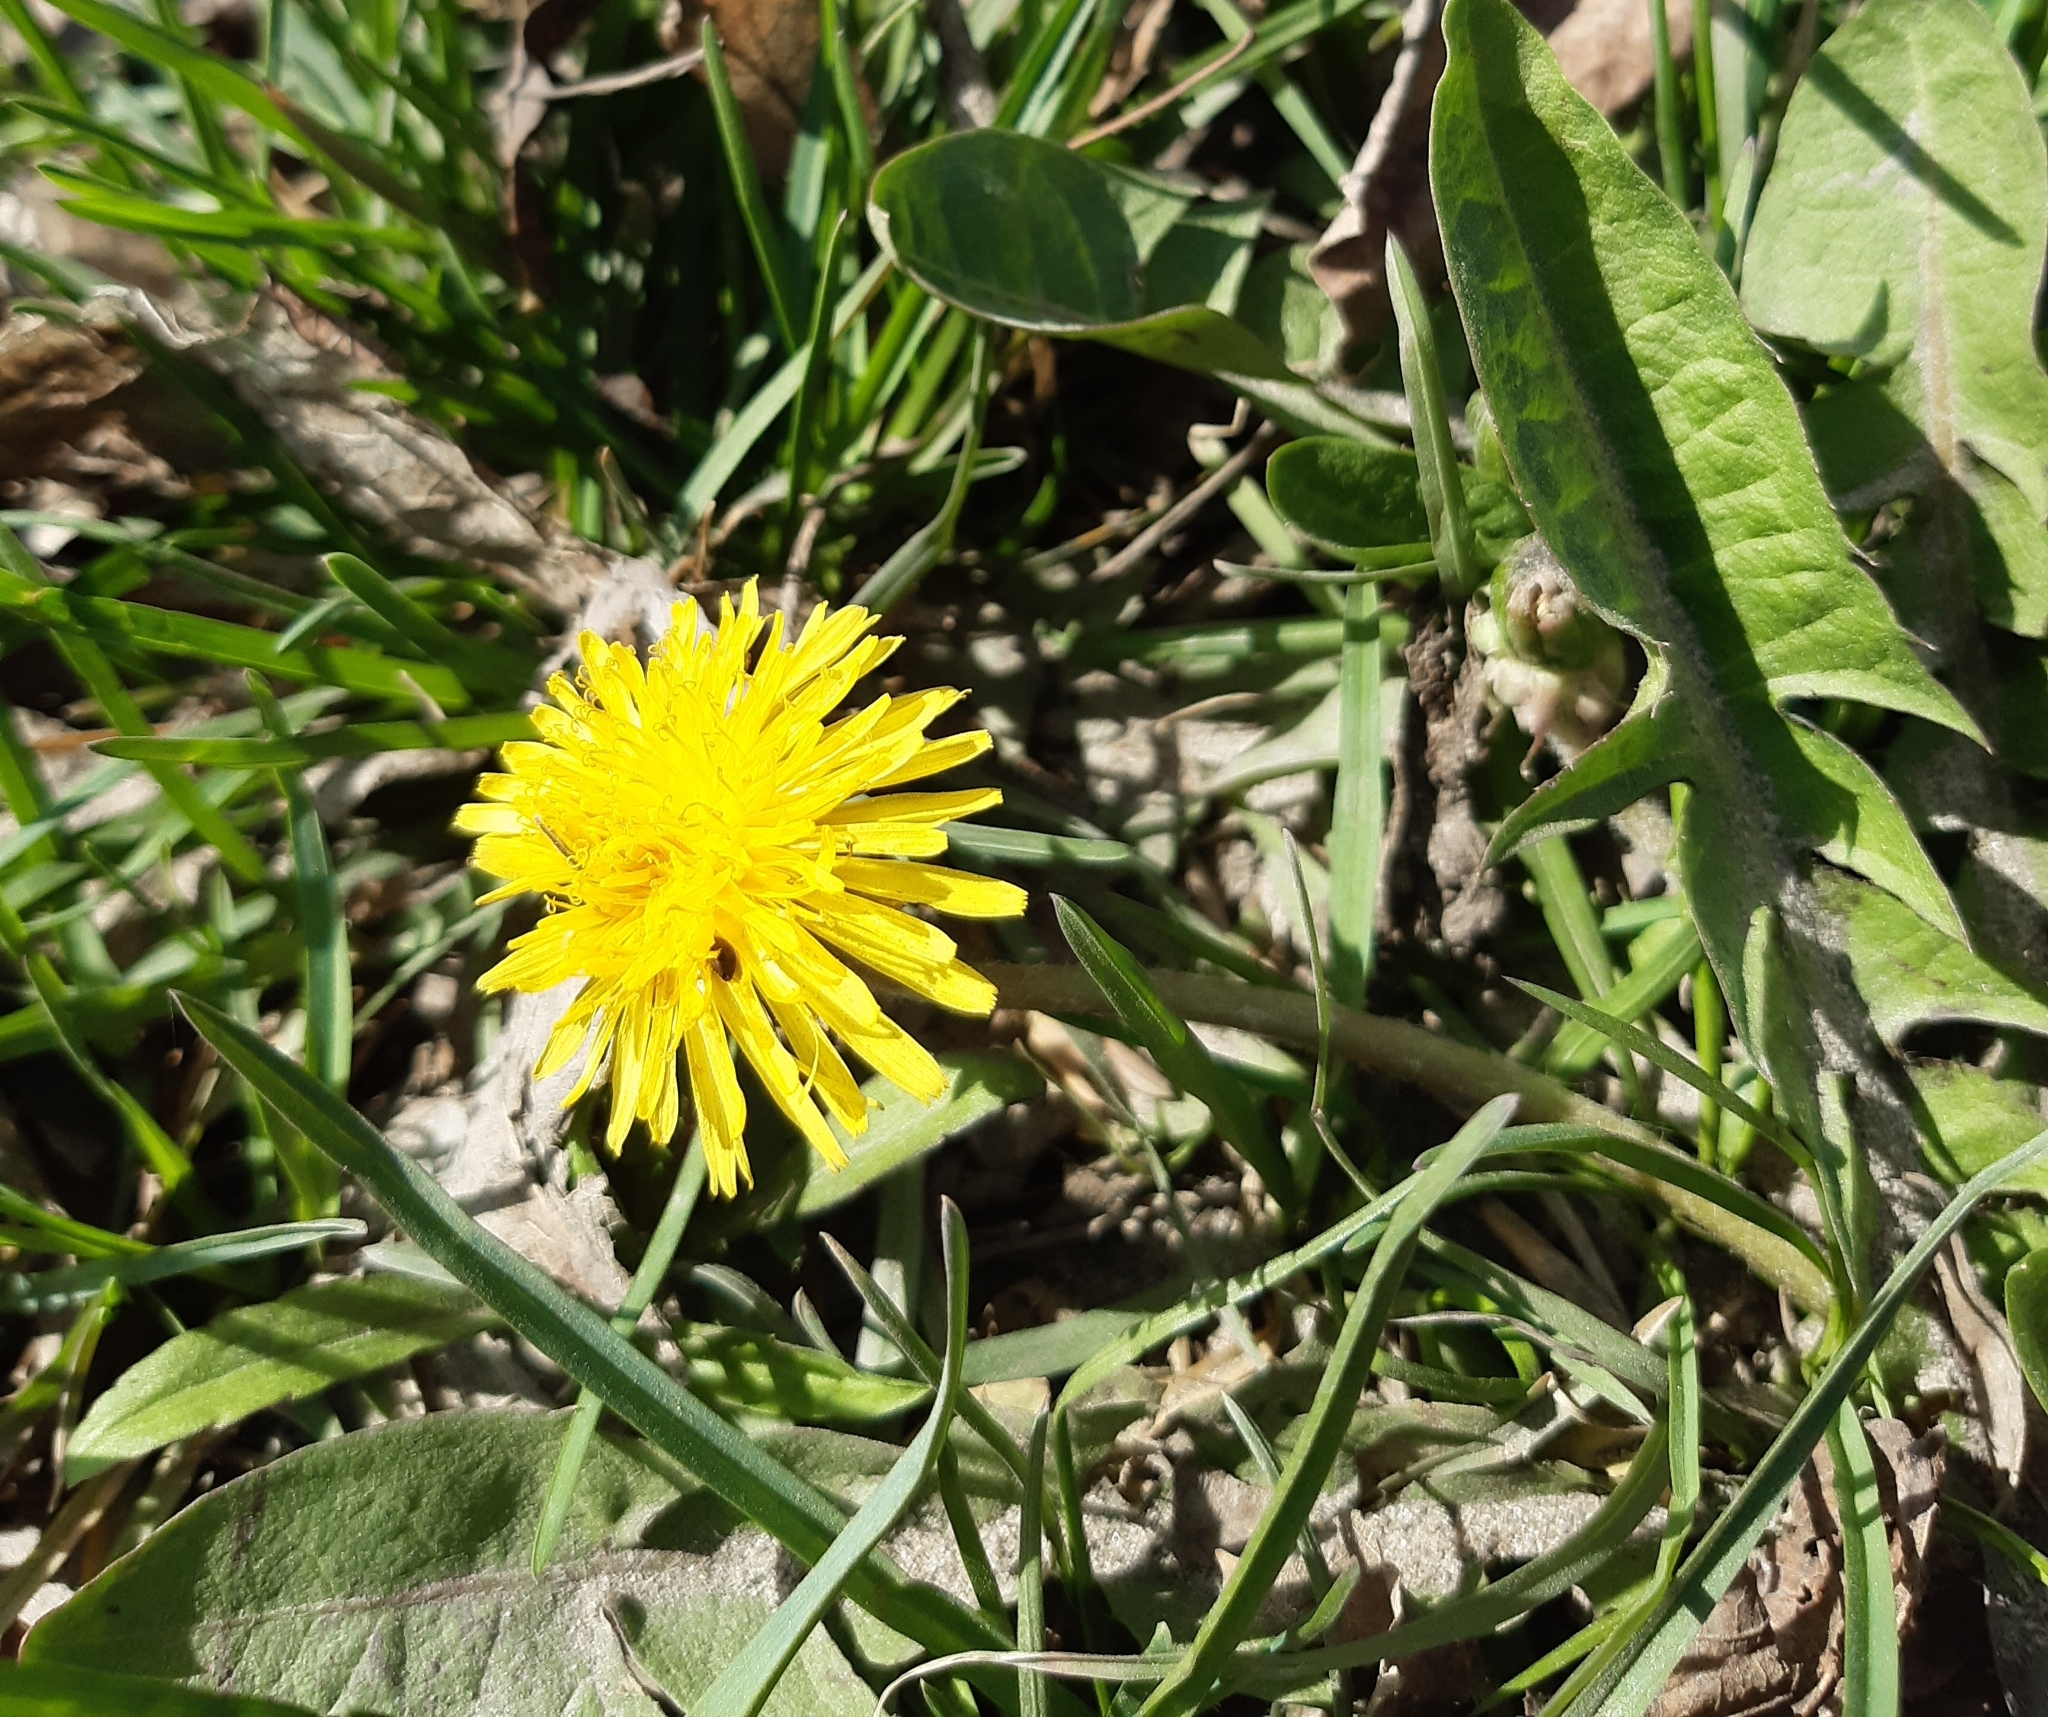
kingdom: Plantae
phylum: Tracheophyta
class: Magnoliopsida
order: Asterales
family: Asteraceae
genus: Taraxacum
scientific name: Taraxacum officinale
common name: Common dandelion
